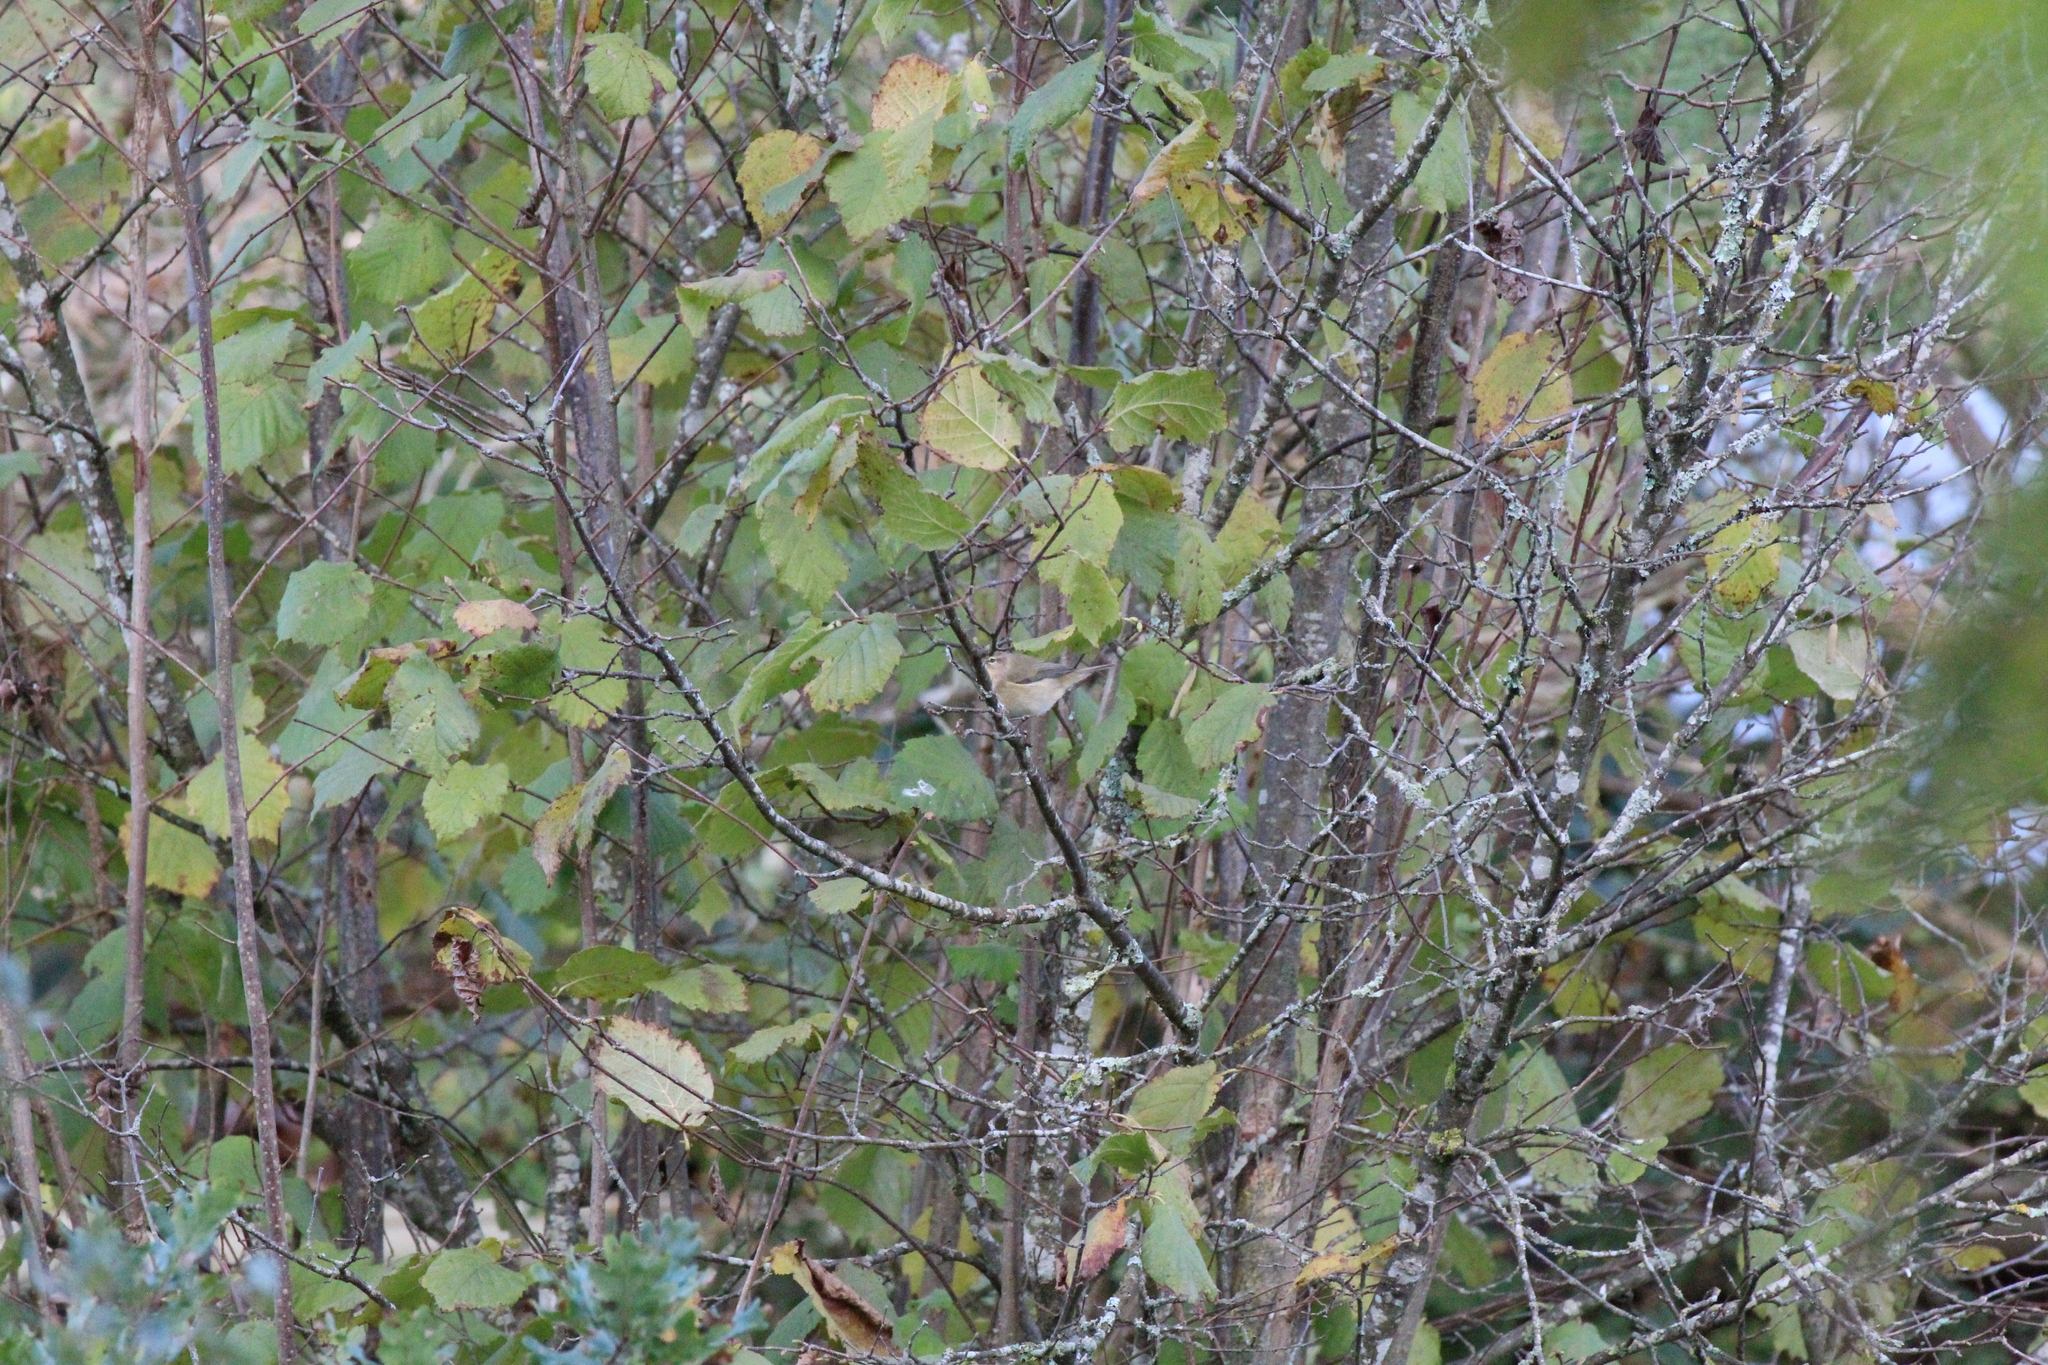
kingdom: Animalia
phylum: Chordata
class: Aves
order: Passeriformes
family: Phylloscopidae
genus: Phylloscopus
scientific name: Phylloscopus collybita
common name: Common chiffchaff
